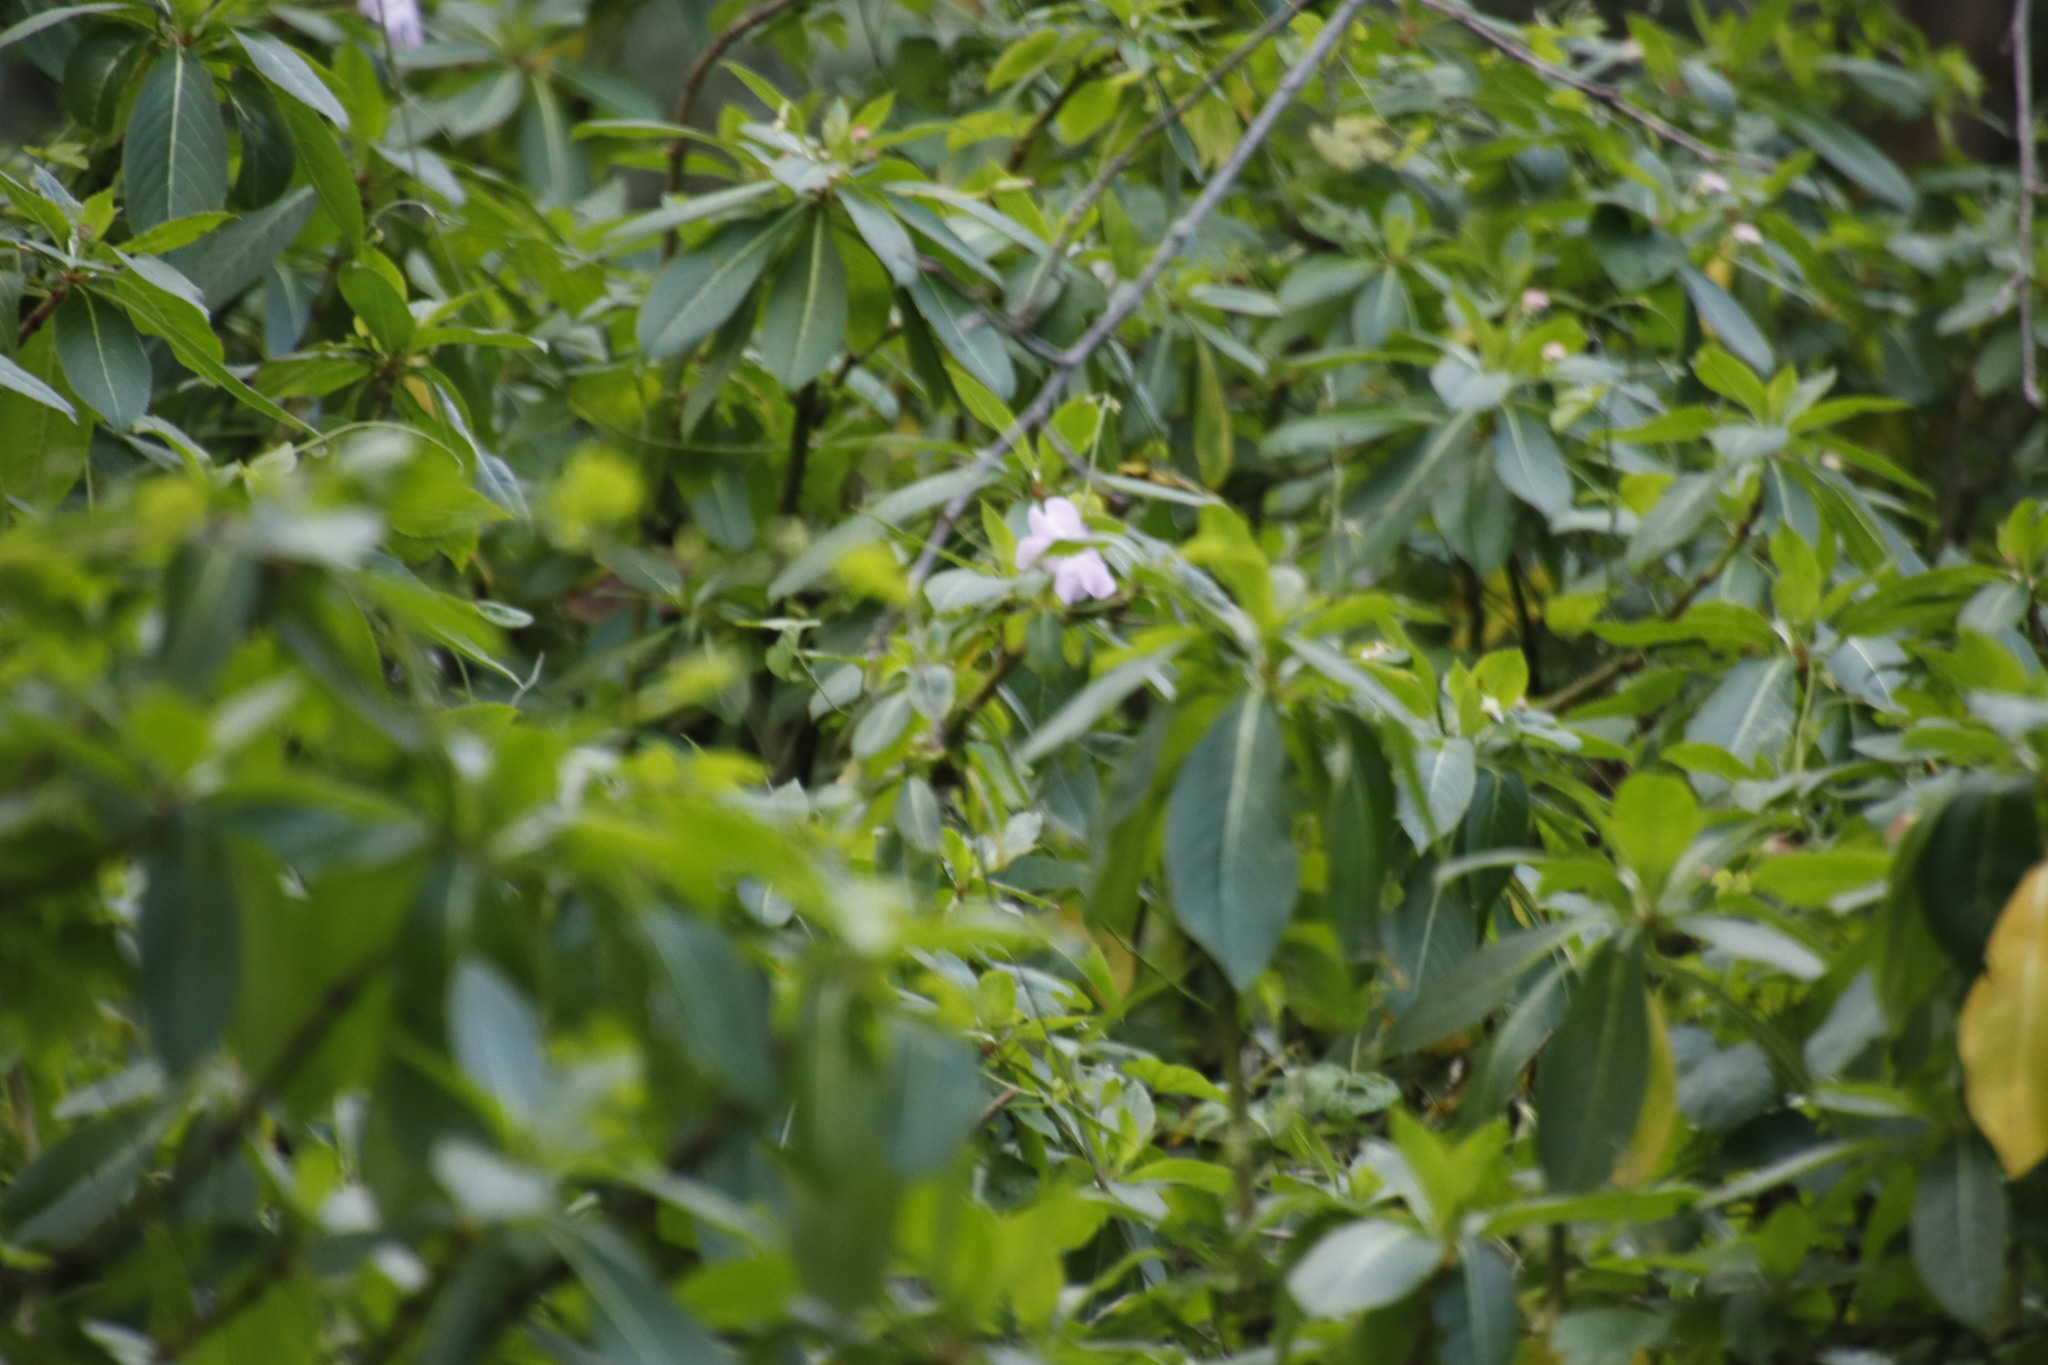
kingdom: Plantae
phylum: Tracheophyta
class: Magnoliopsida
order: Ericales
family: Balsaminaceae
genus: Impatiens
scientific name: Impatiens sodenii
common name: Oliver's touch-me-not
